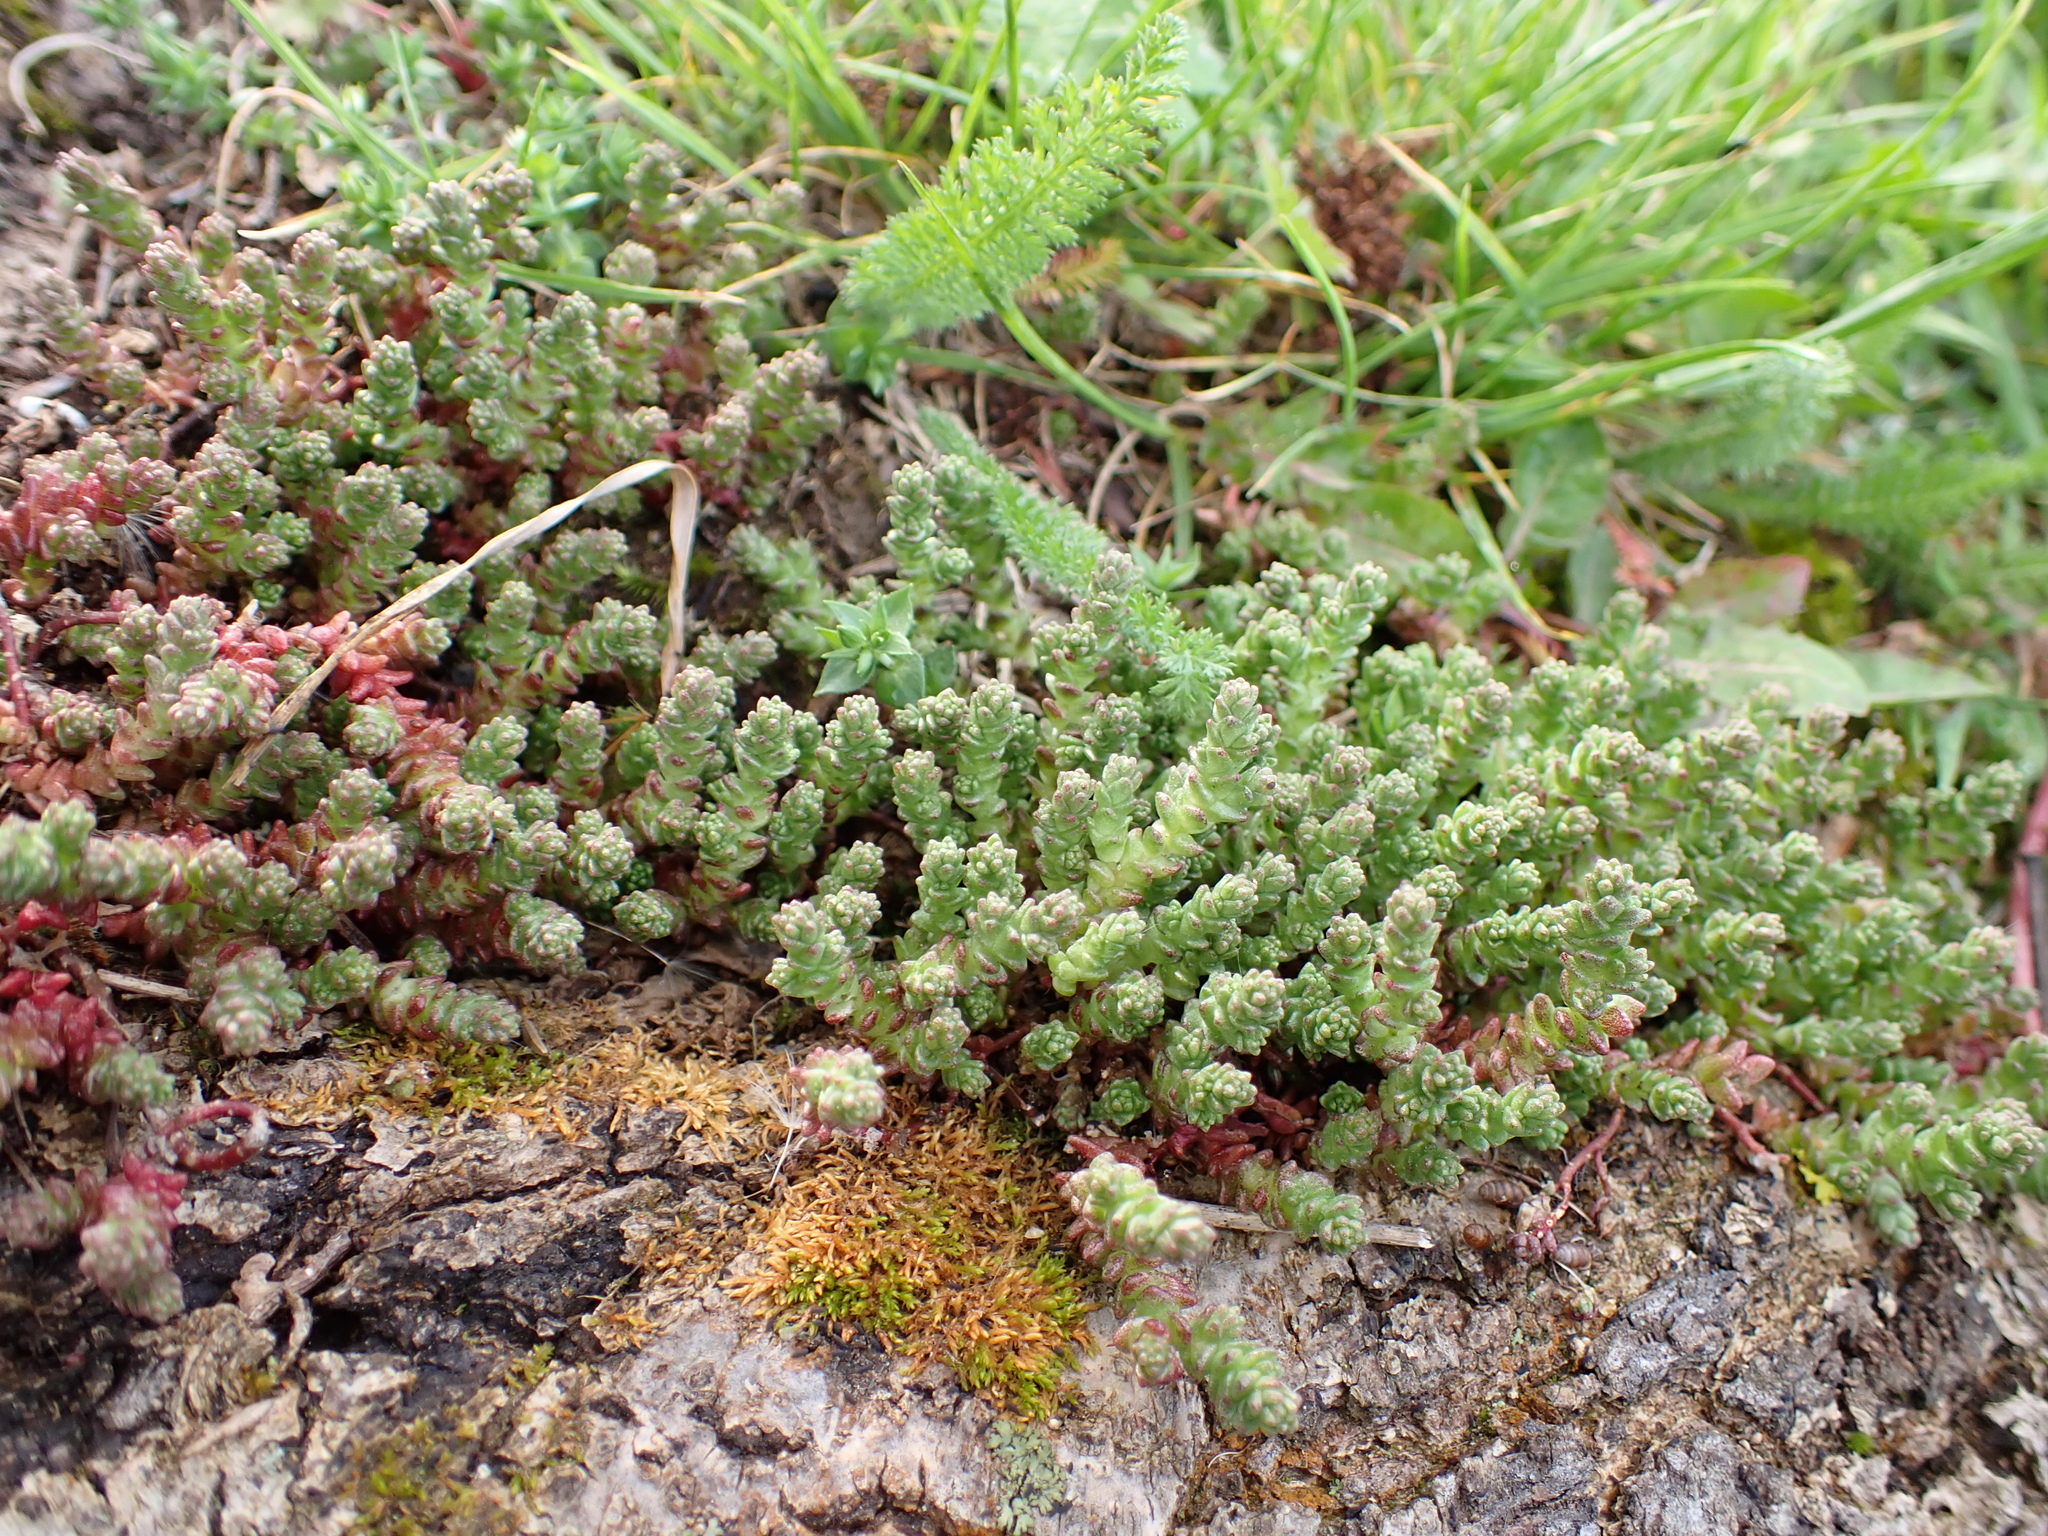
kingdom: Plantae
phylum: Tracheophyta
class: Magnoliopsida
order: Saxifragales
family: Crassulaceae
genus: Sedum
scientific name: Sedum acre
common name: Biting stonecrop
